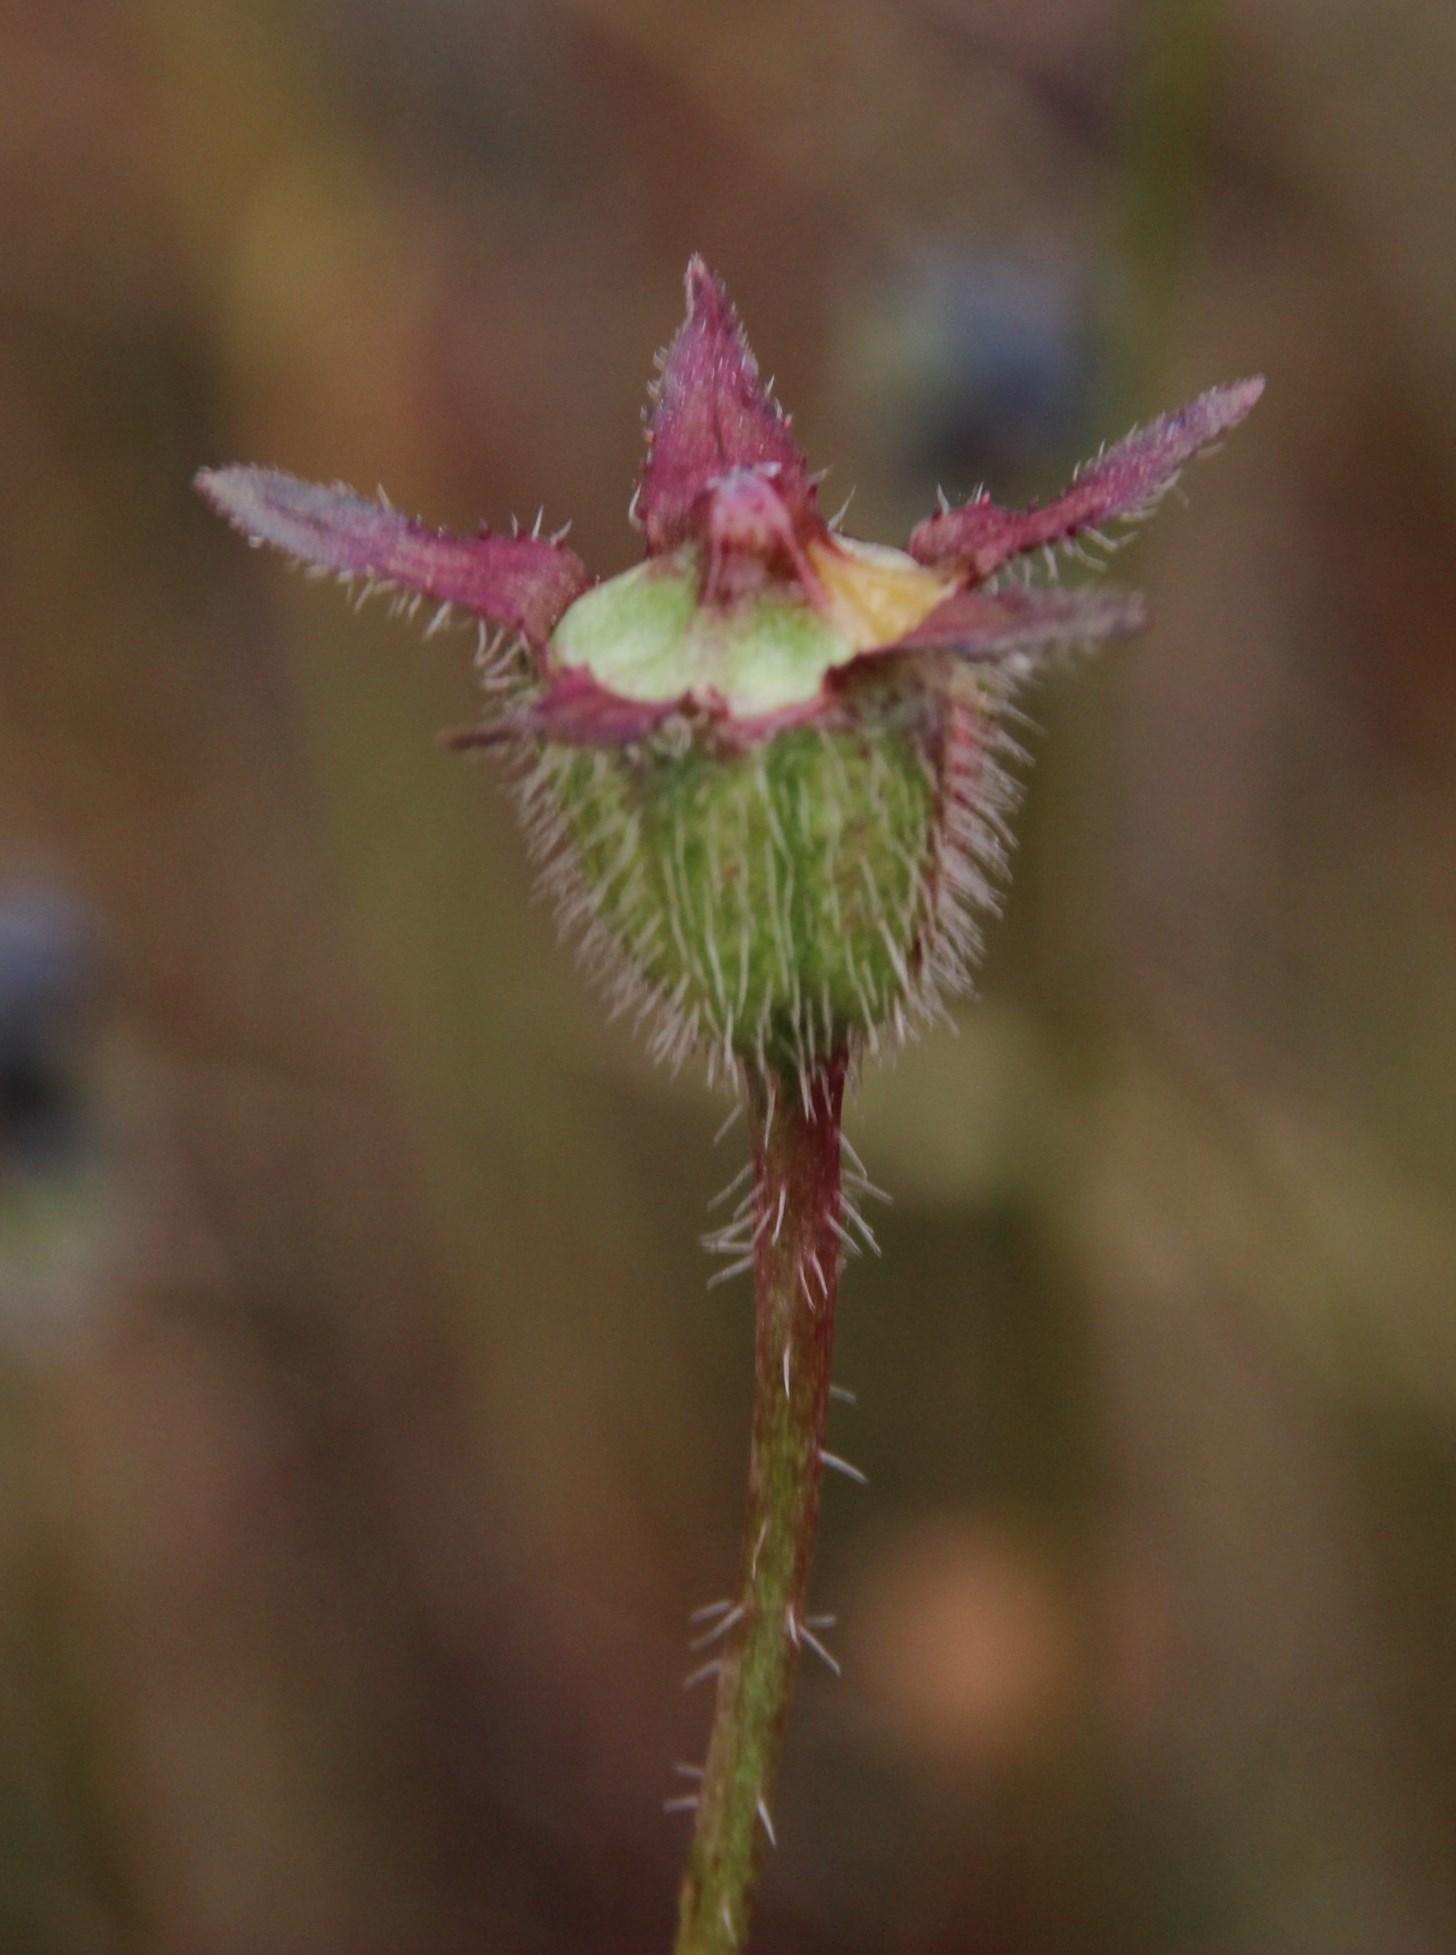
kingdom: Plantae
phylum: Tracheophyta
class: Magnoliopsida
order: Asterales
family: Campanulaceae
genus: Wahlenbergia
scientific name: Wahlenbergia capensis
